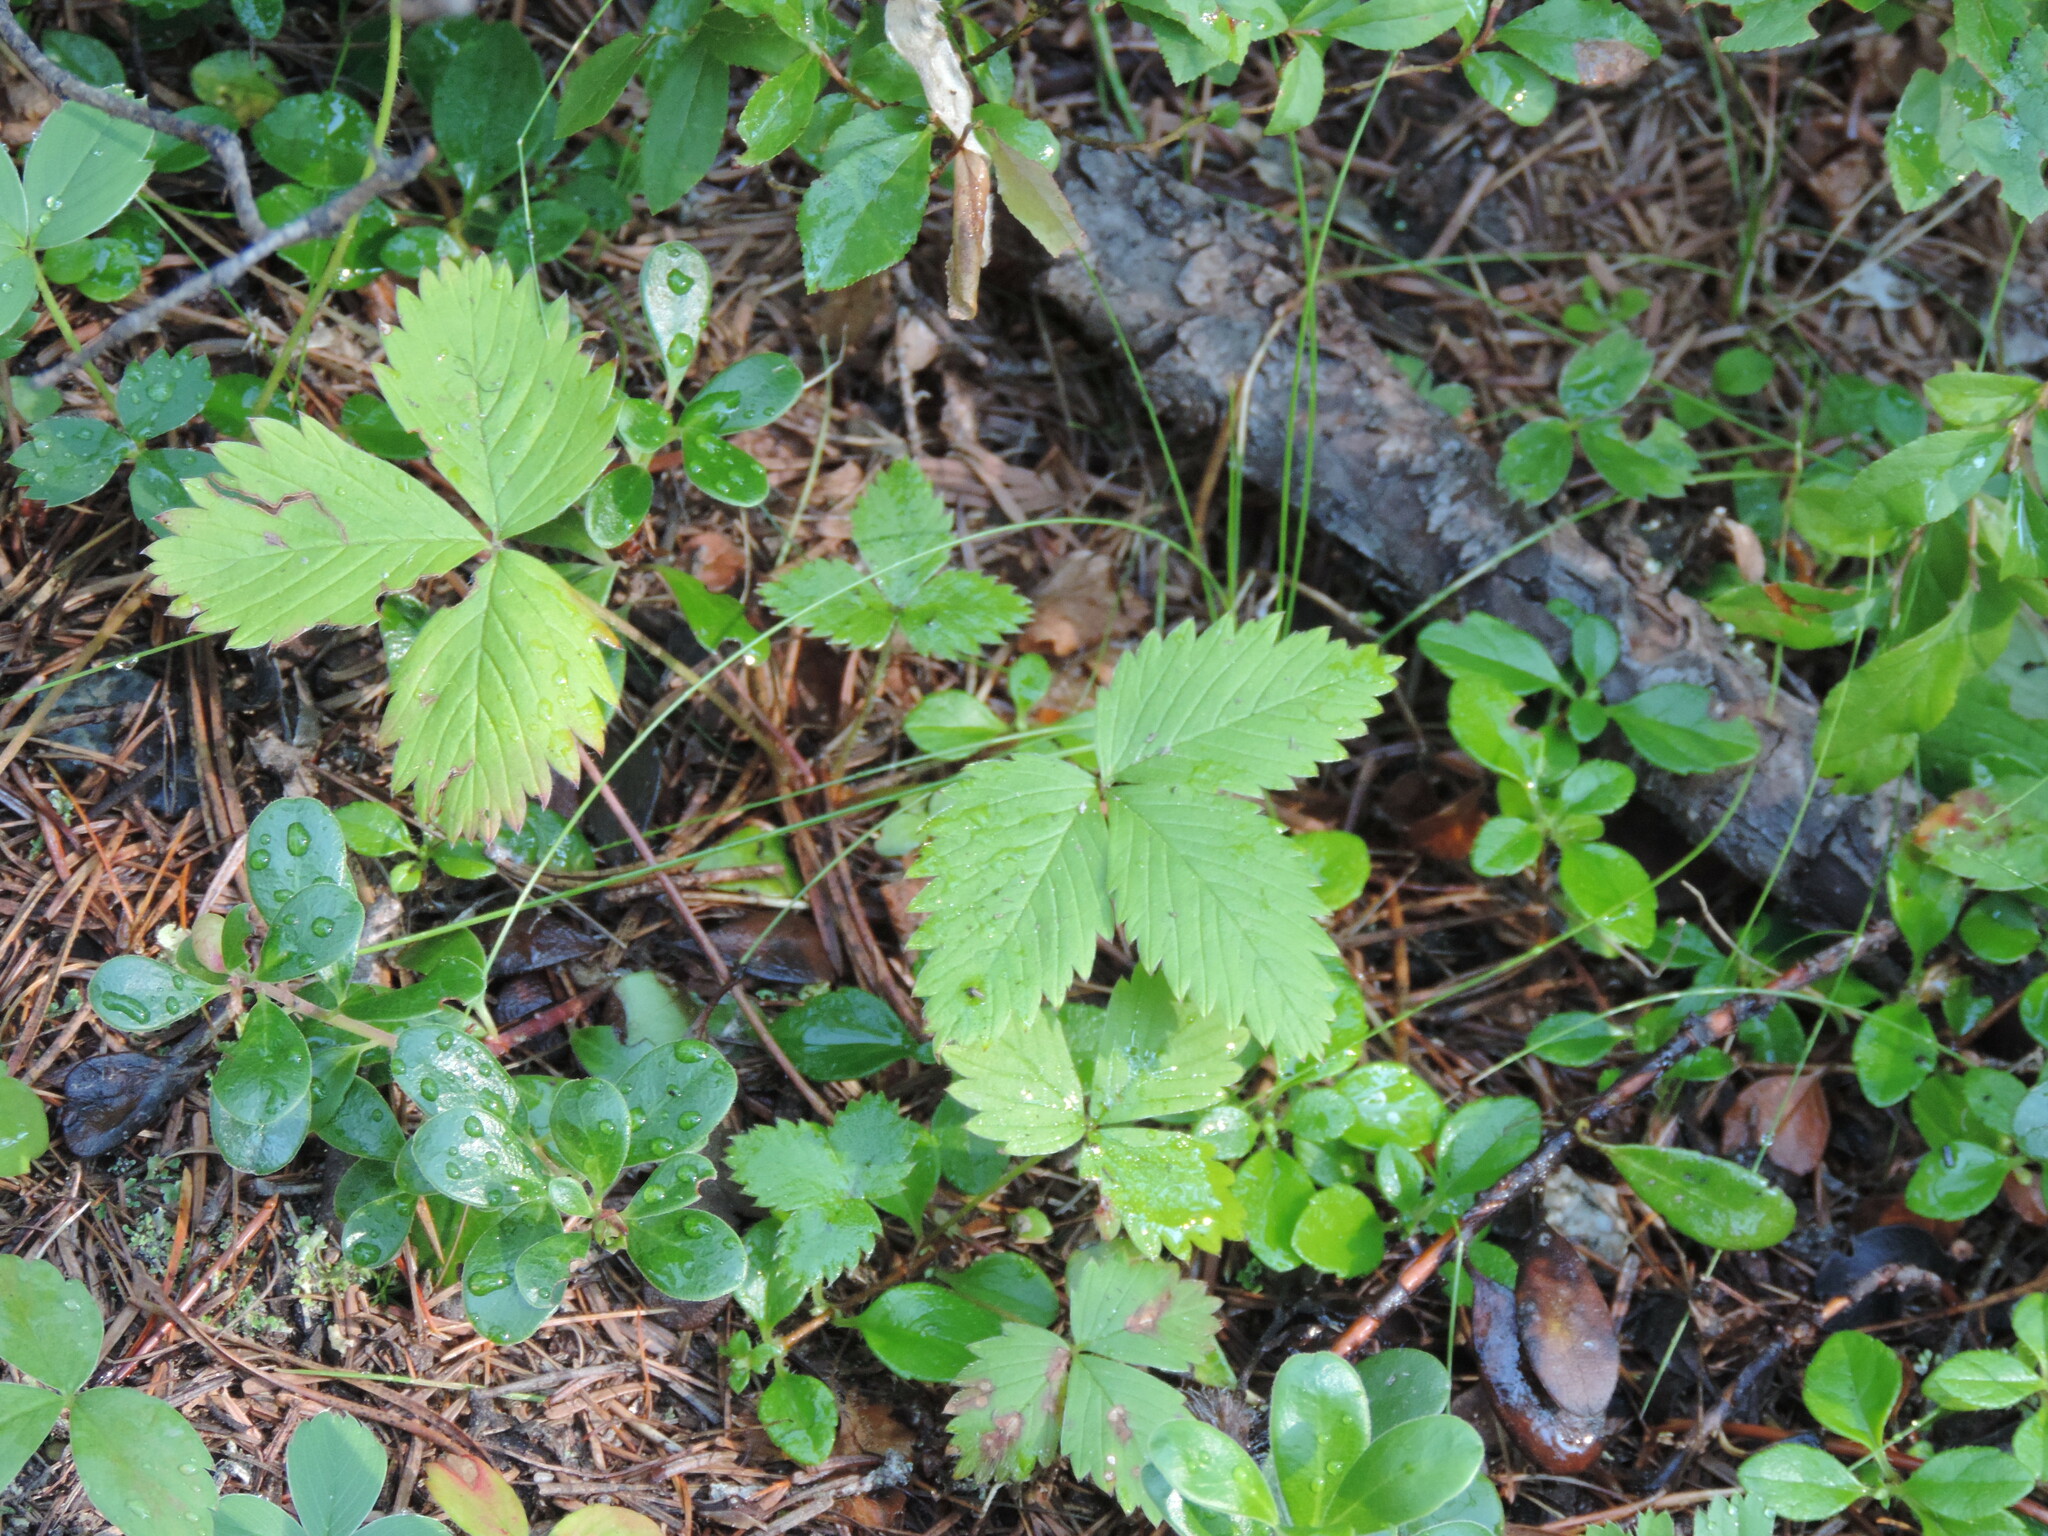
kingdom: Plantae
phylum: Tracheophyta
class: Magnoliopsida
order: Rosales
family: Rosaceae
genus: Fragaria
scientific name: Fragaria vesca
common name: Wild strawberry
